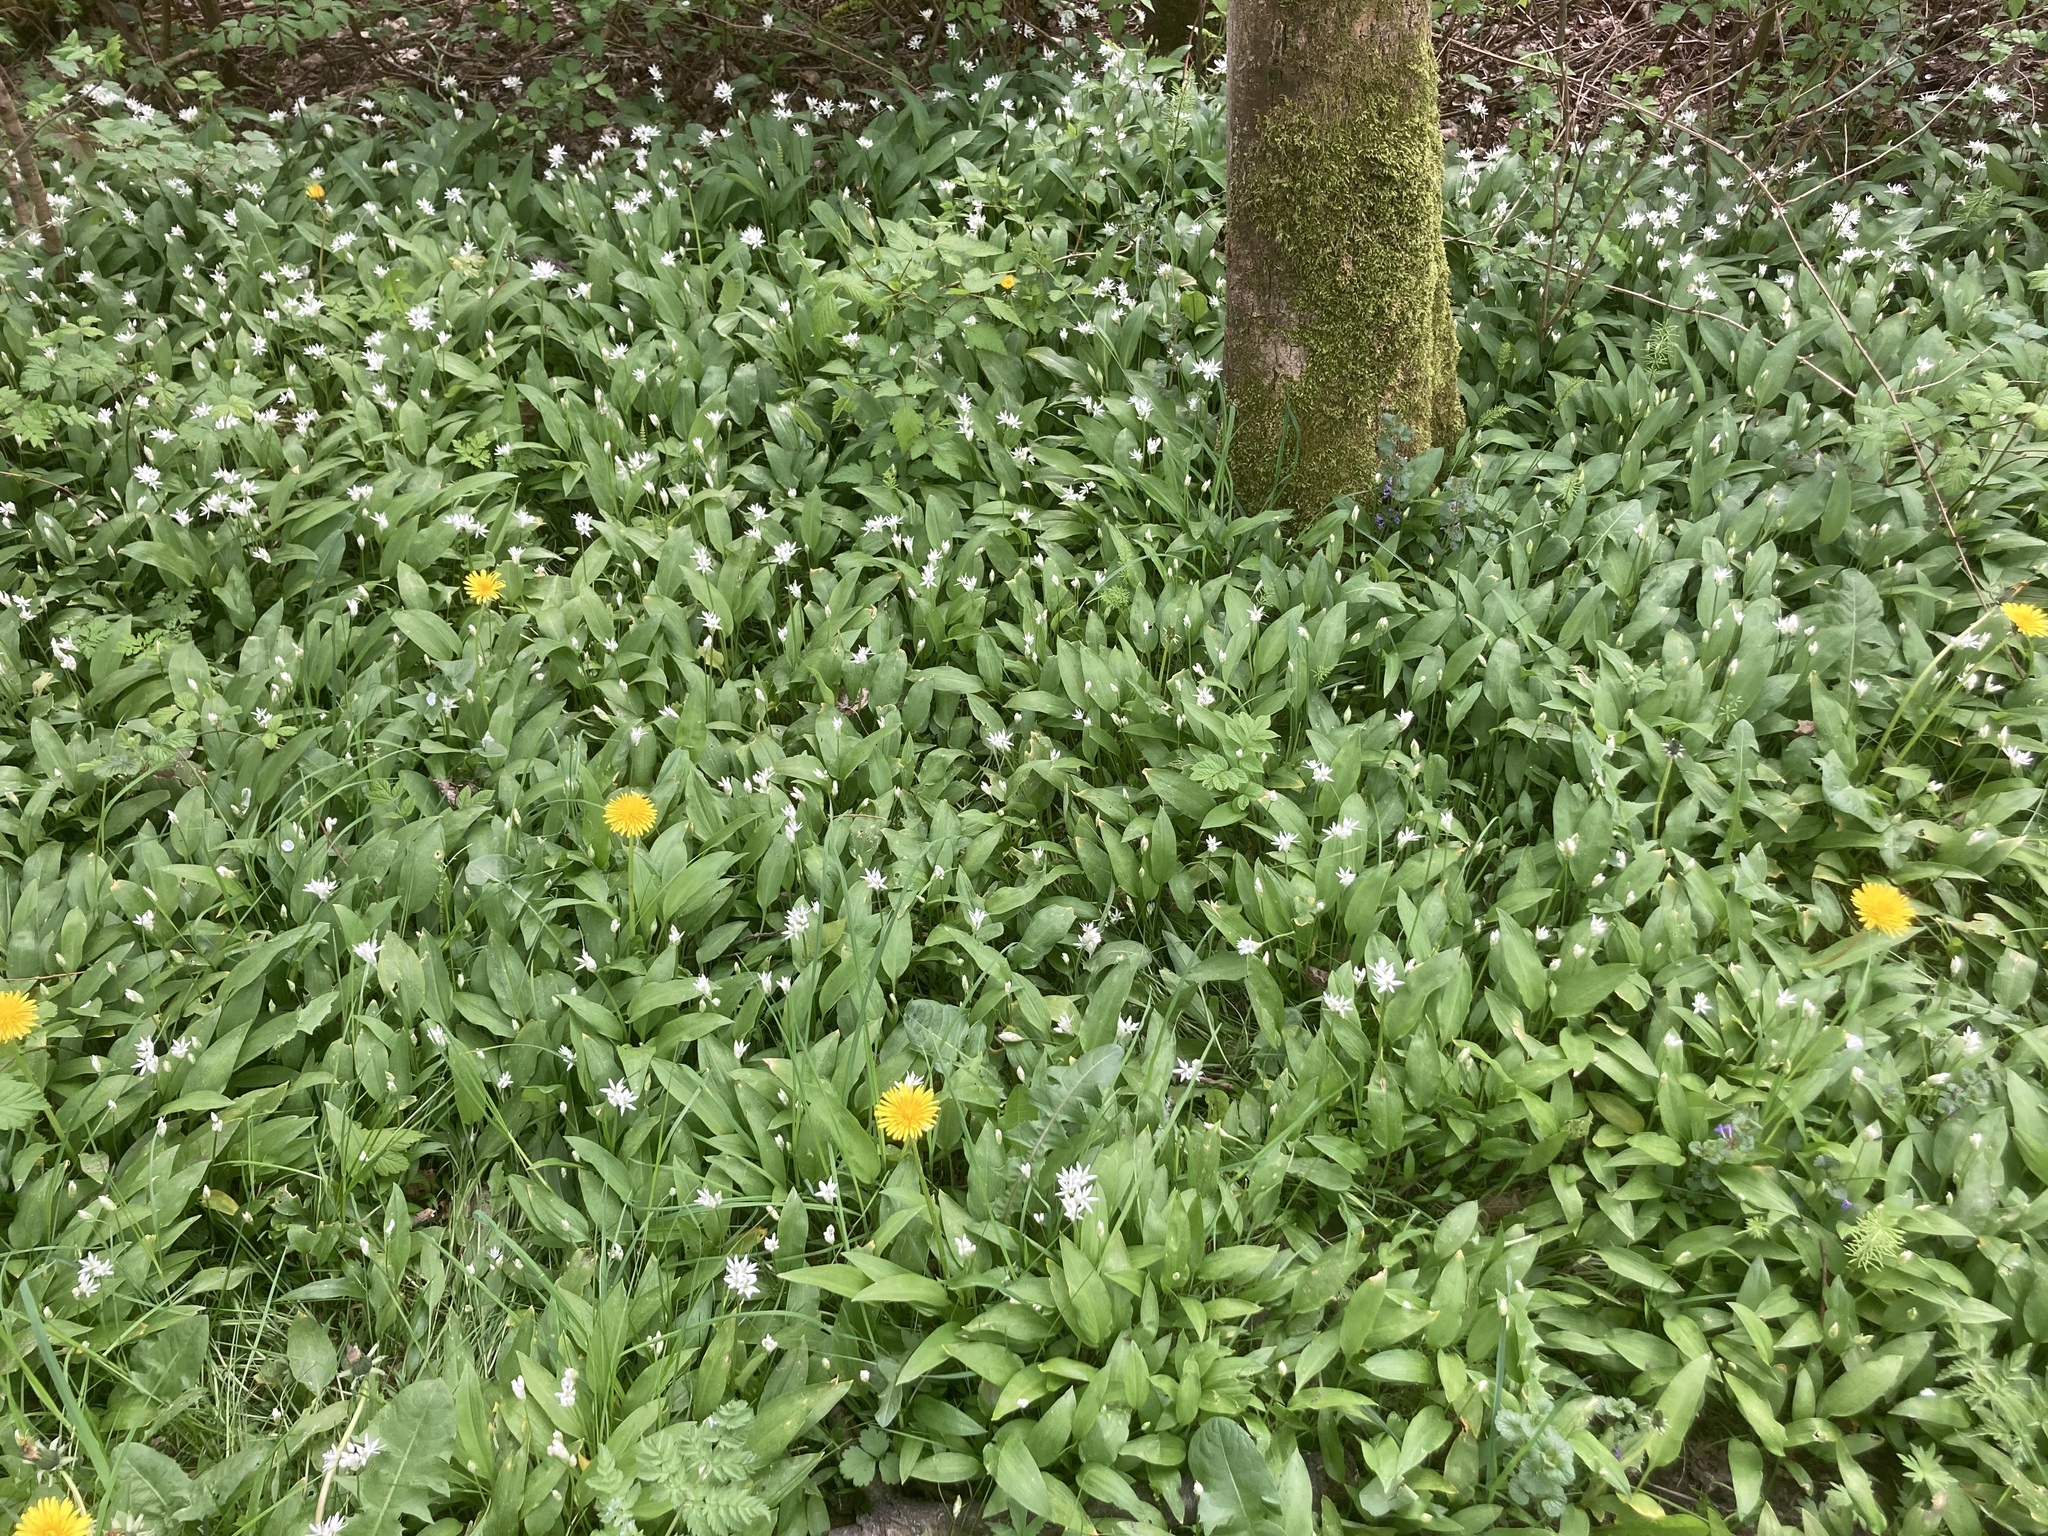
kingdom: Plantae
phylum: Tracheophyta
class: Liliopsida
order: Asparagales
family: Amaryllidaceae
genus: Allium
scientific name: Allium ursinum
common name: Ramsons
